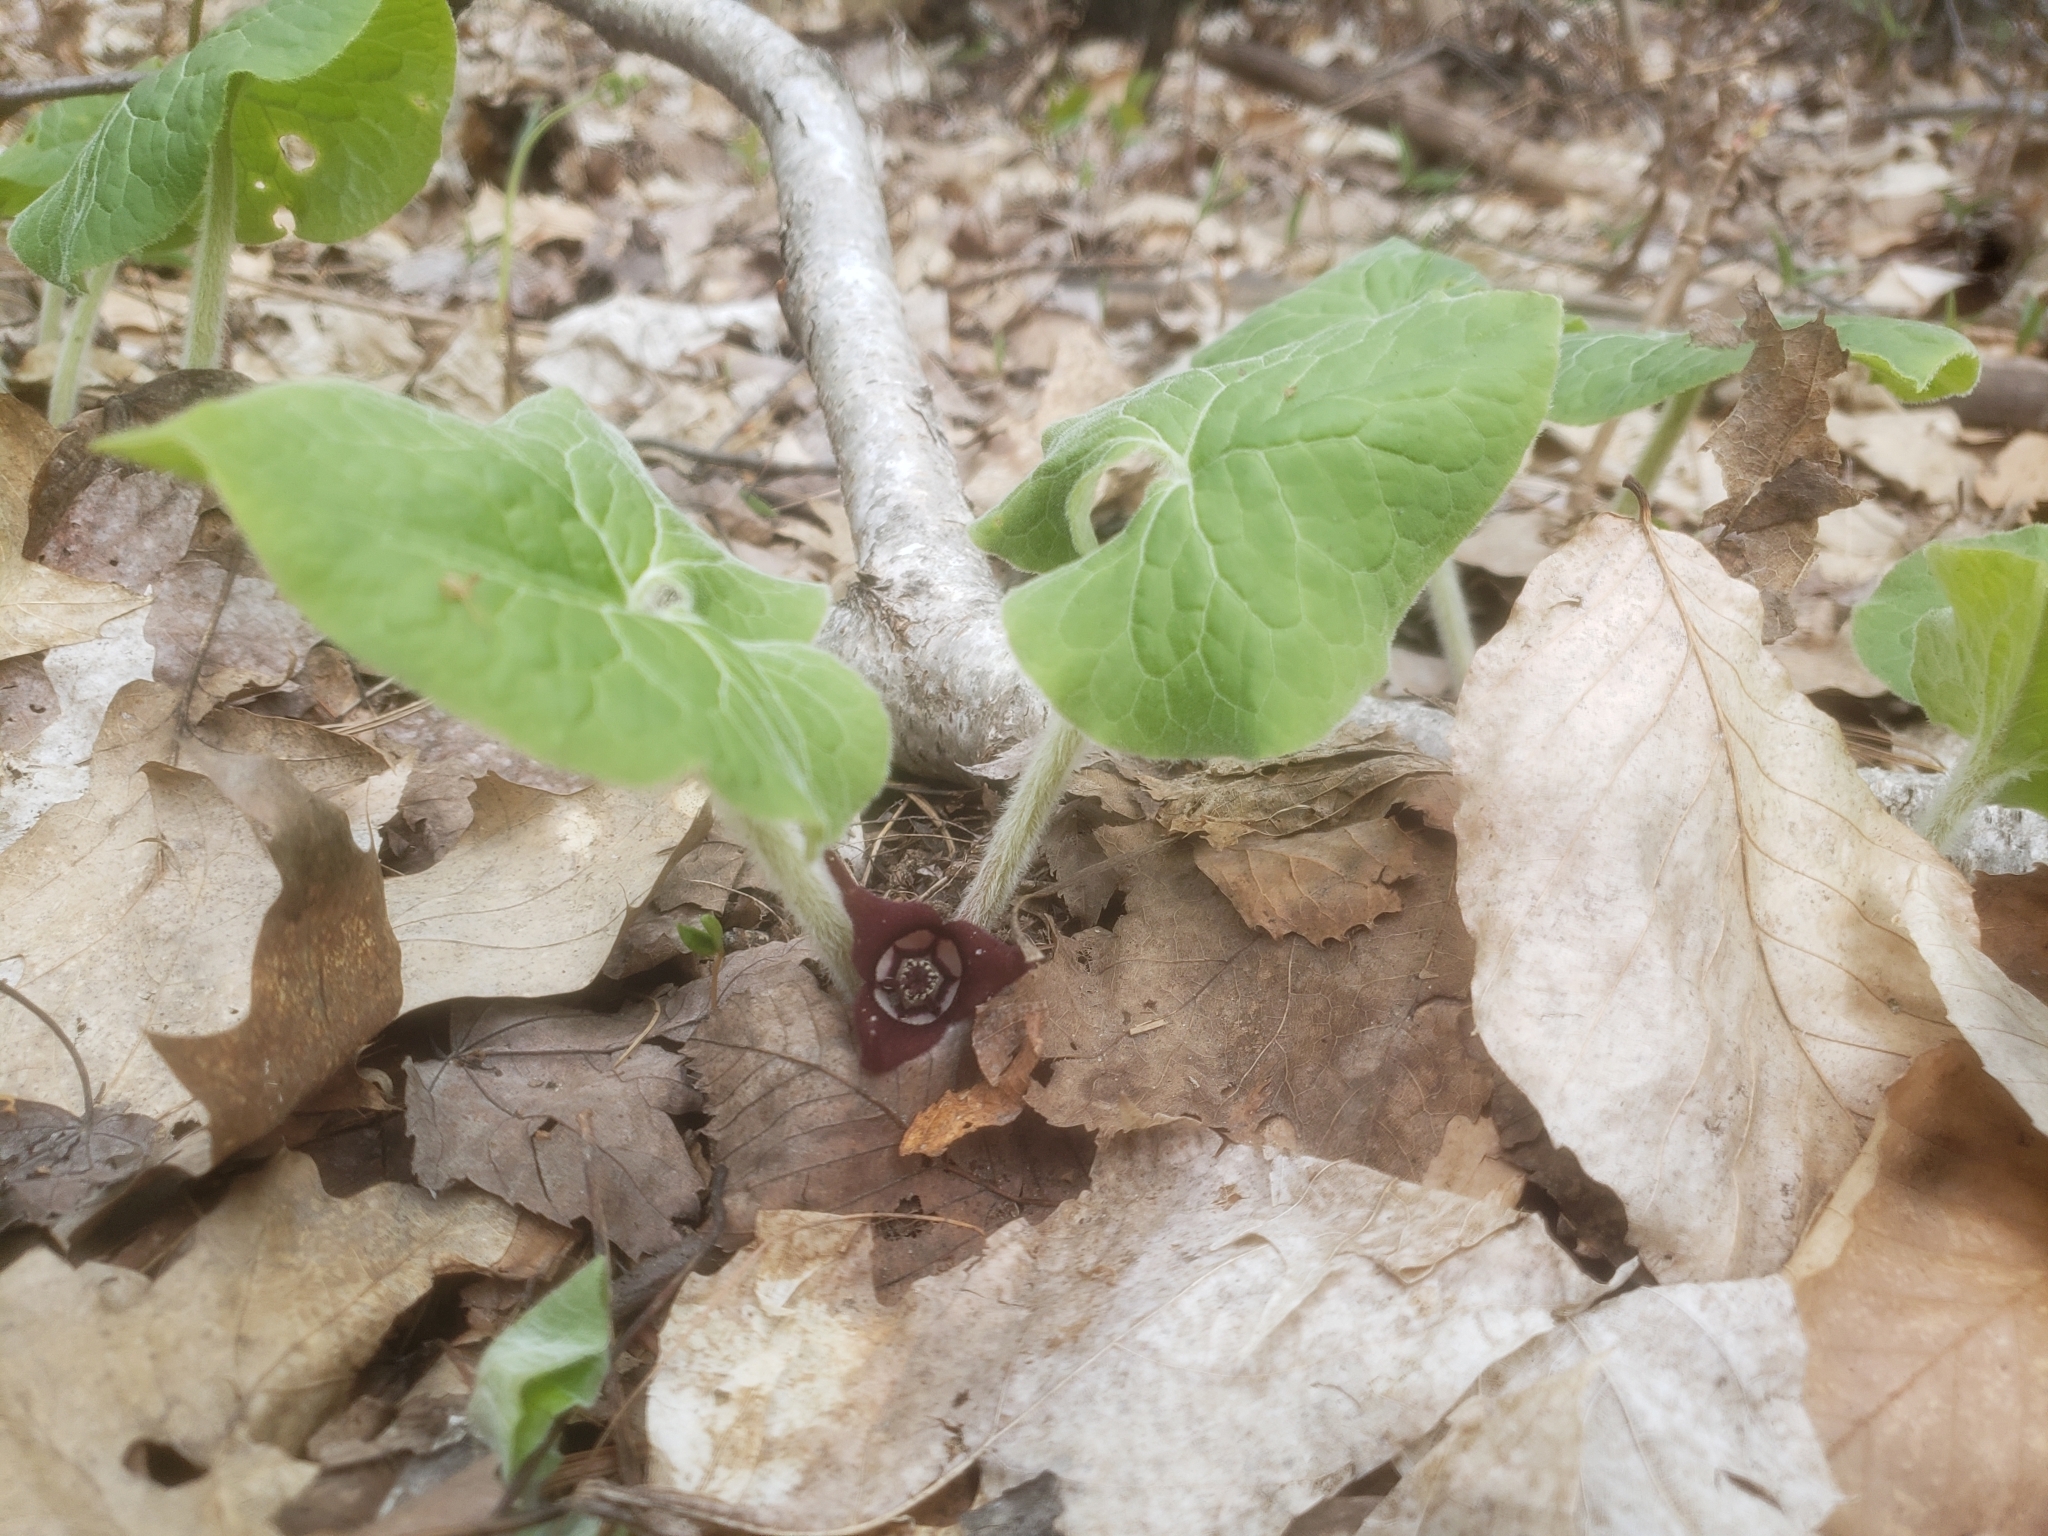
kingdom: Plantae
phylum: Tracheophyta
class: Magnoliopsida
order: Piperales
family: Aristolochiaceae
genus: Asarum
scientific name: Asarum canadense
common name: Wild ginger
